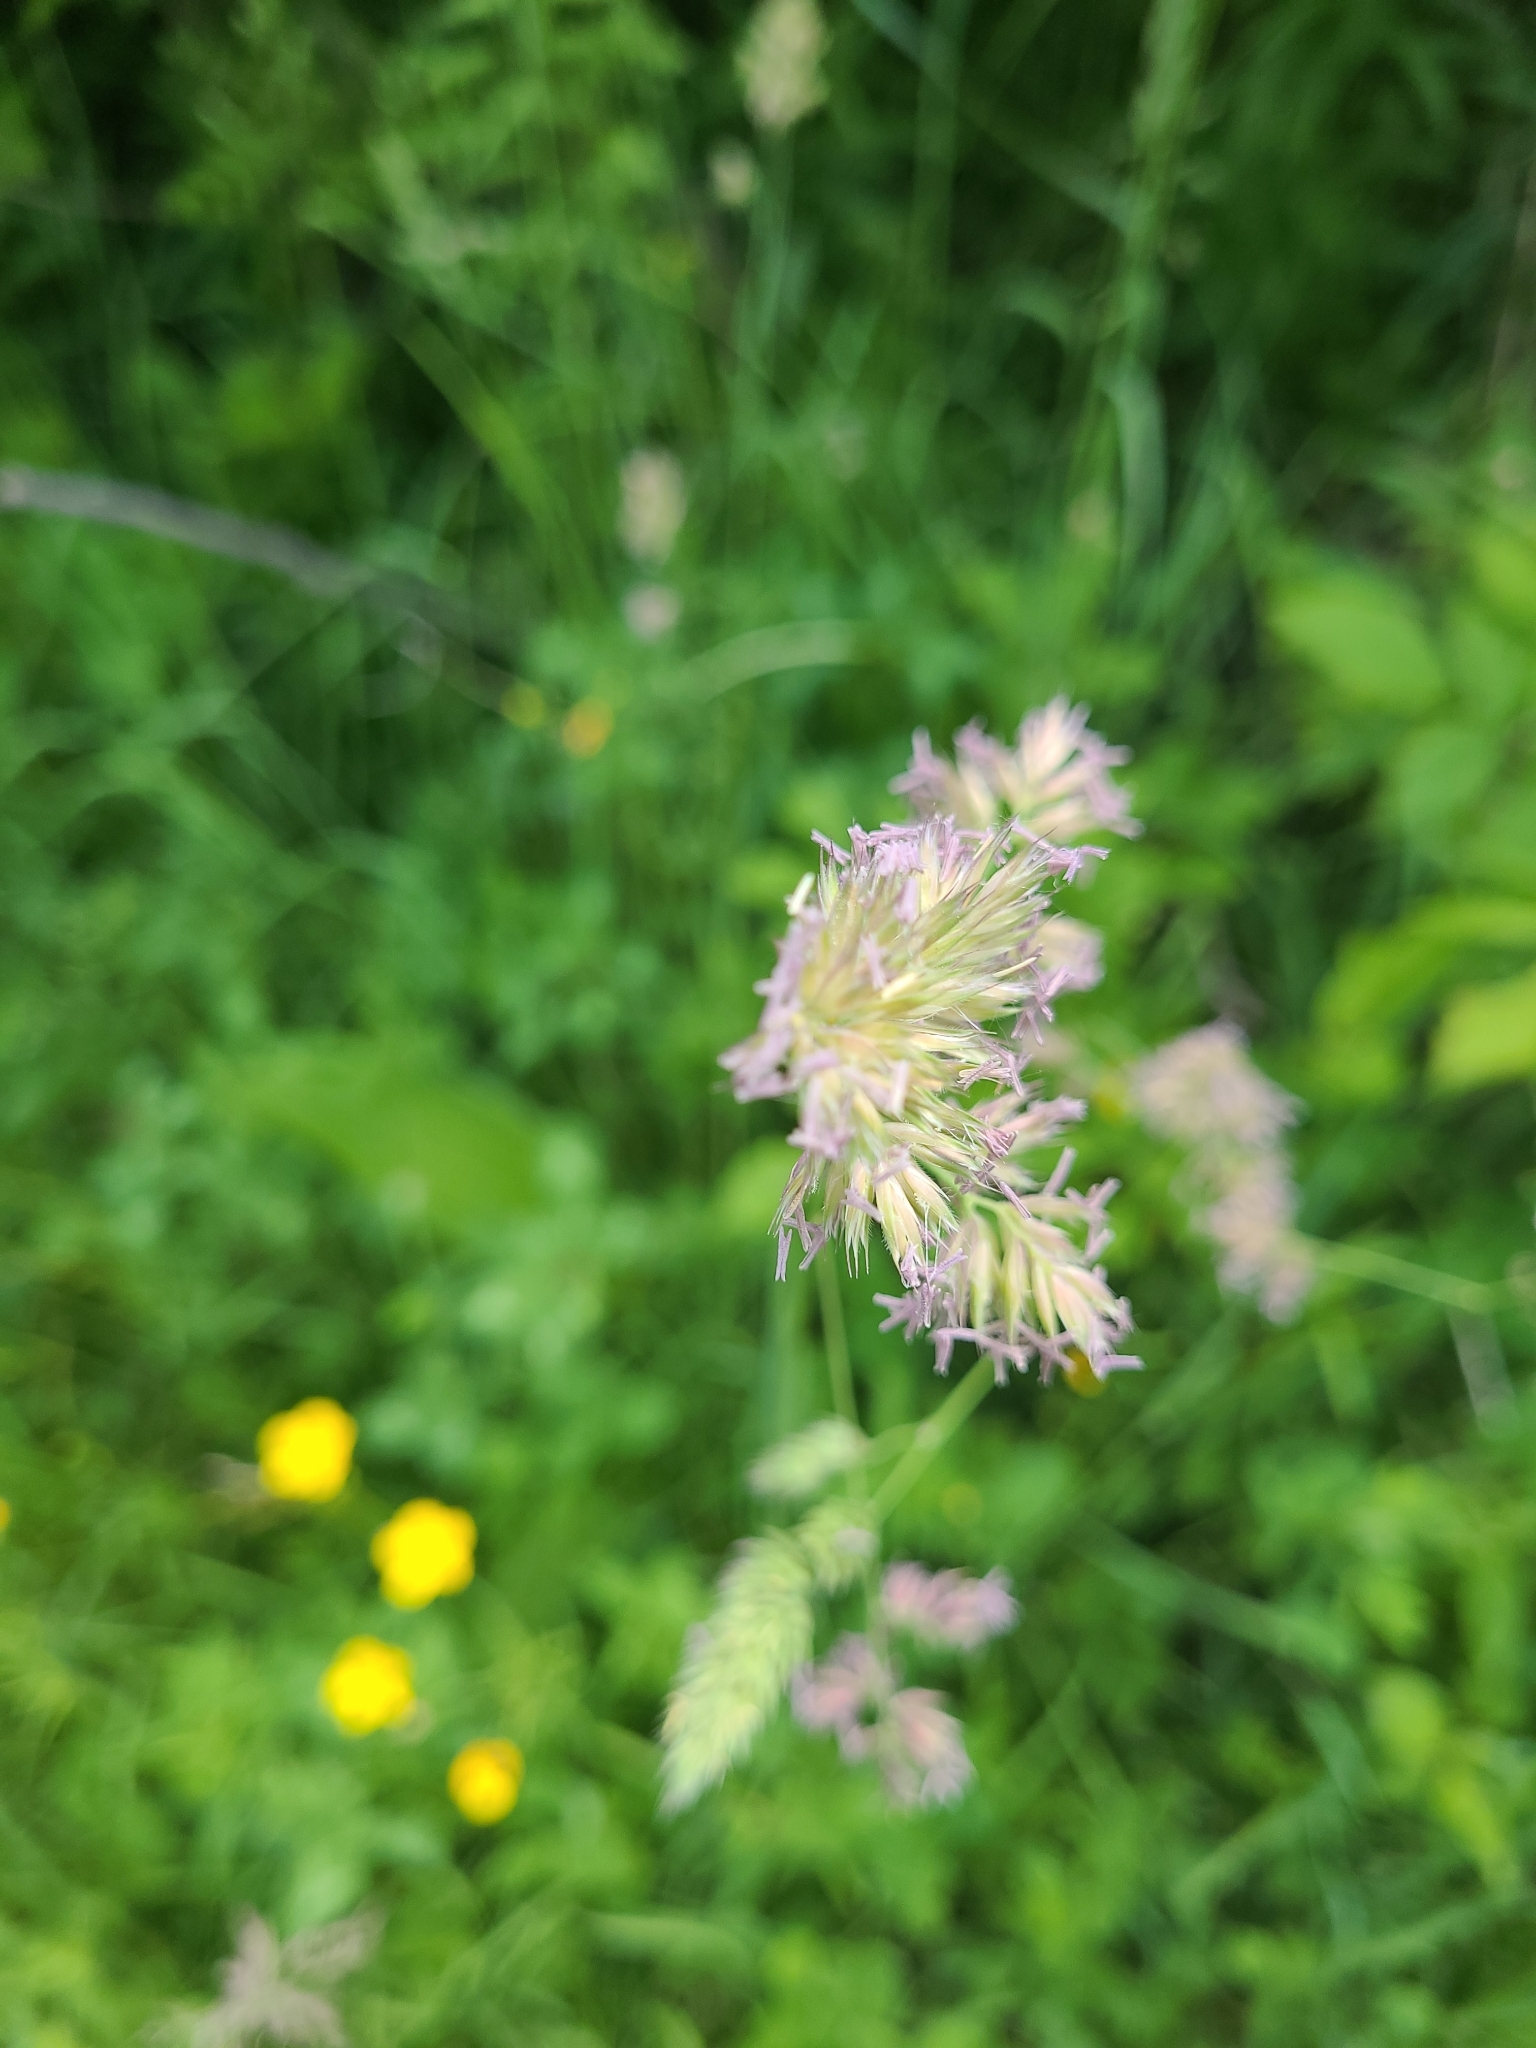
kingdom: Plantae
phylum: Tracheophyta
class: Liliopsida
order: Poales
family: Poaceae
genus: Dactylis
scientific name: Dactylis glomerata
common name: Orchardgrass
